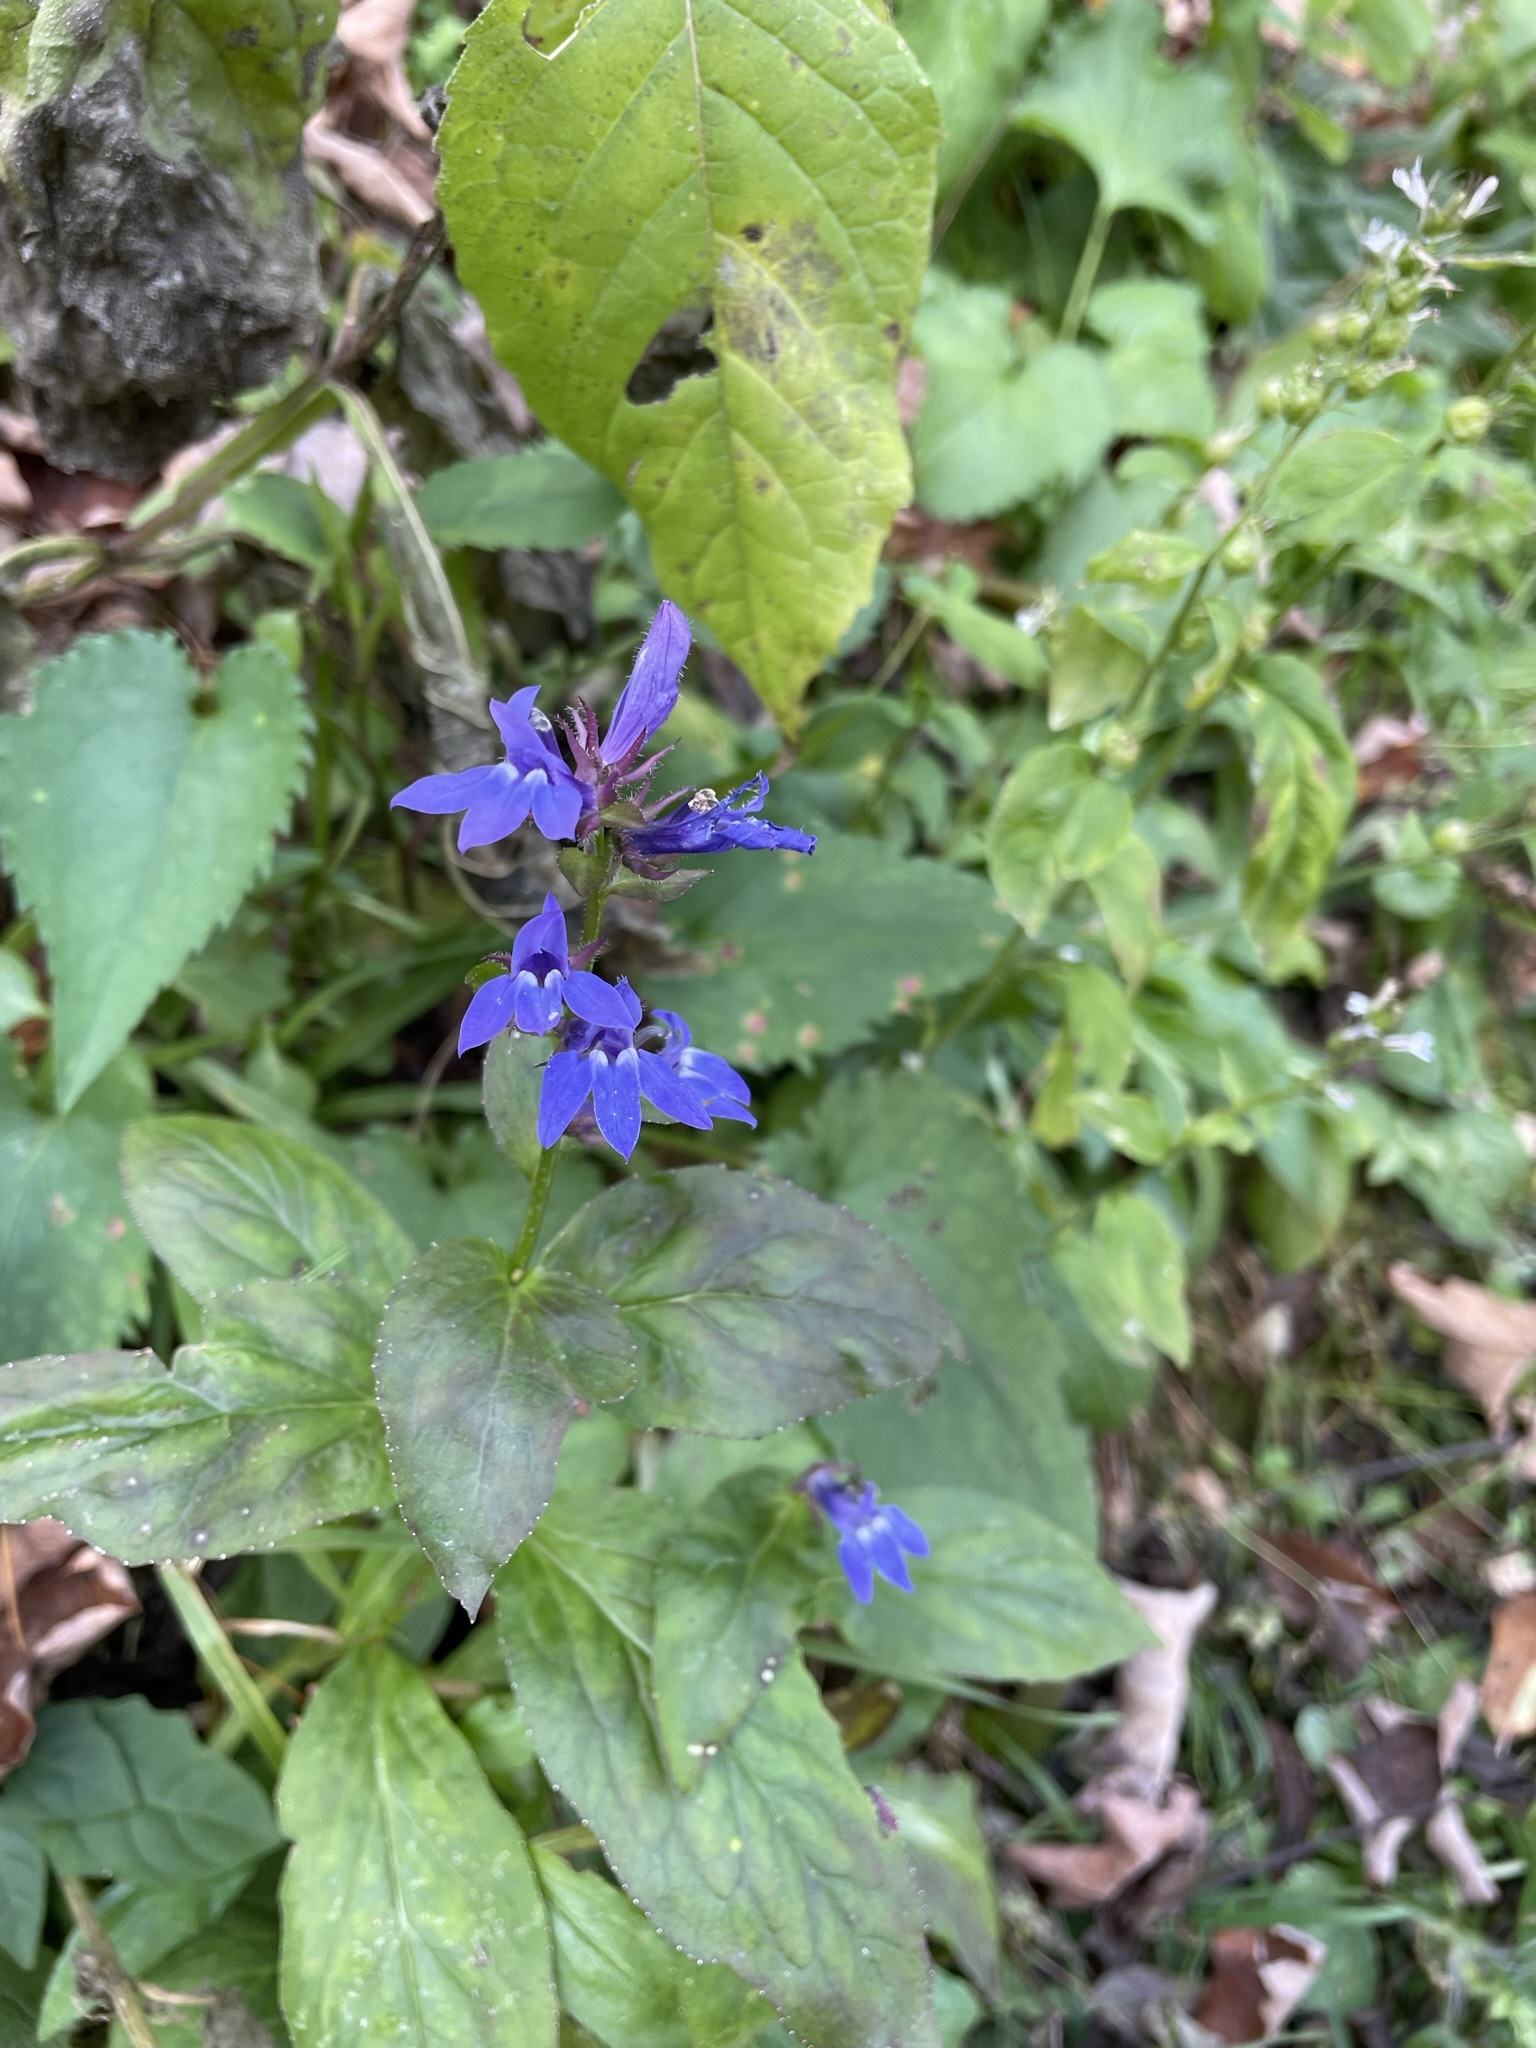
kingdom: Plantae
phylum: Tracheophyta
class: Magnoliopsida
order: Asterales
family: Campanulaceae
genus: Lobelia
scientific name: Lobelia siphilitica
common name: Great lobelia
